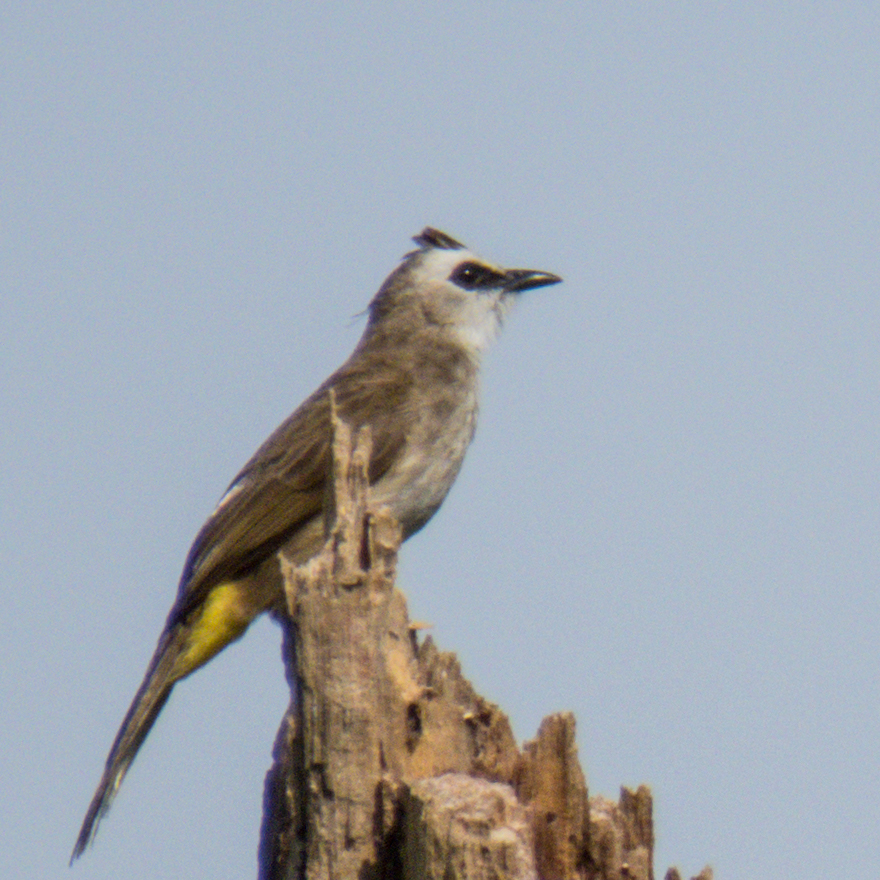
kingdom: Animalia
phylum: Chordata
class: Aves
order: Passeriformes
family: Pycnonotidae
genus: Pycnonotus
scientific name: Pycnonotus goiavier
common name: Yellow-vented bulbul
